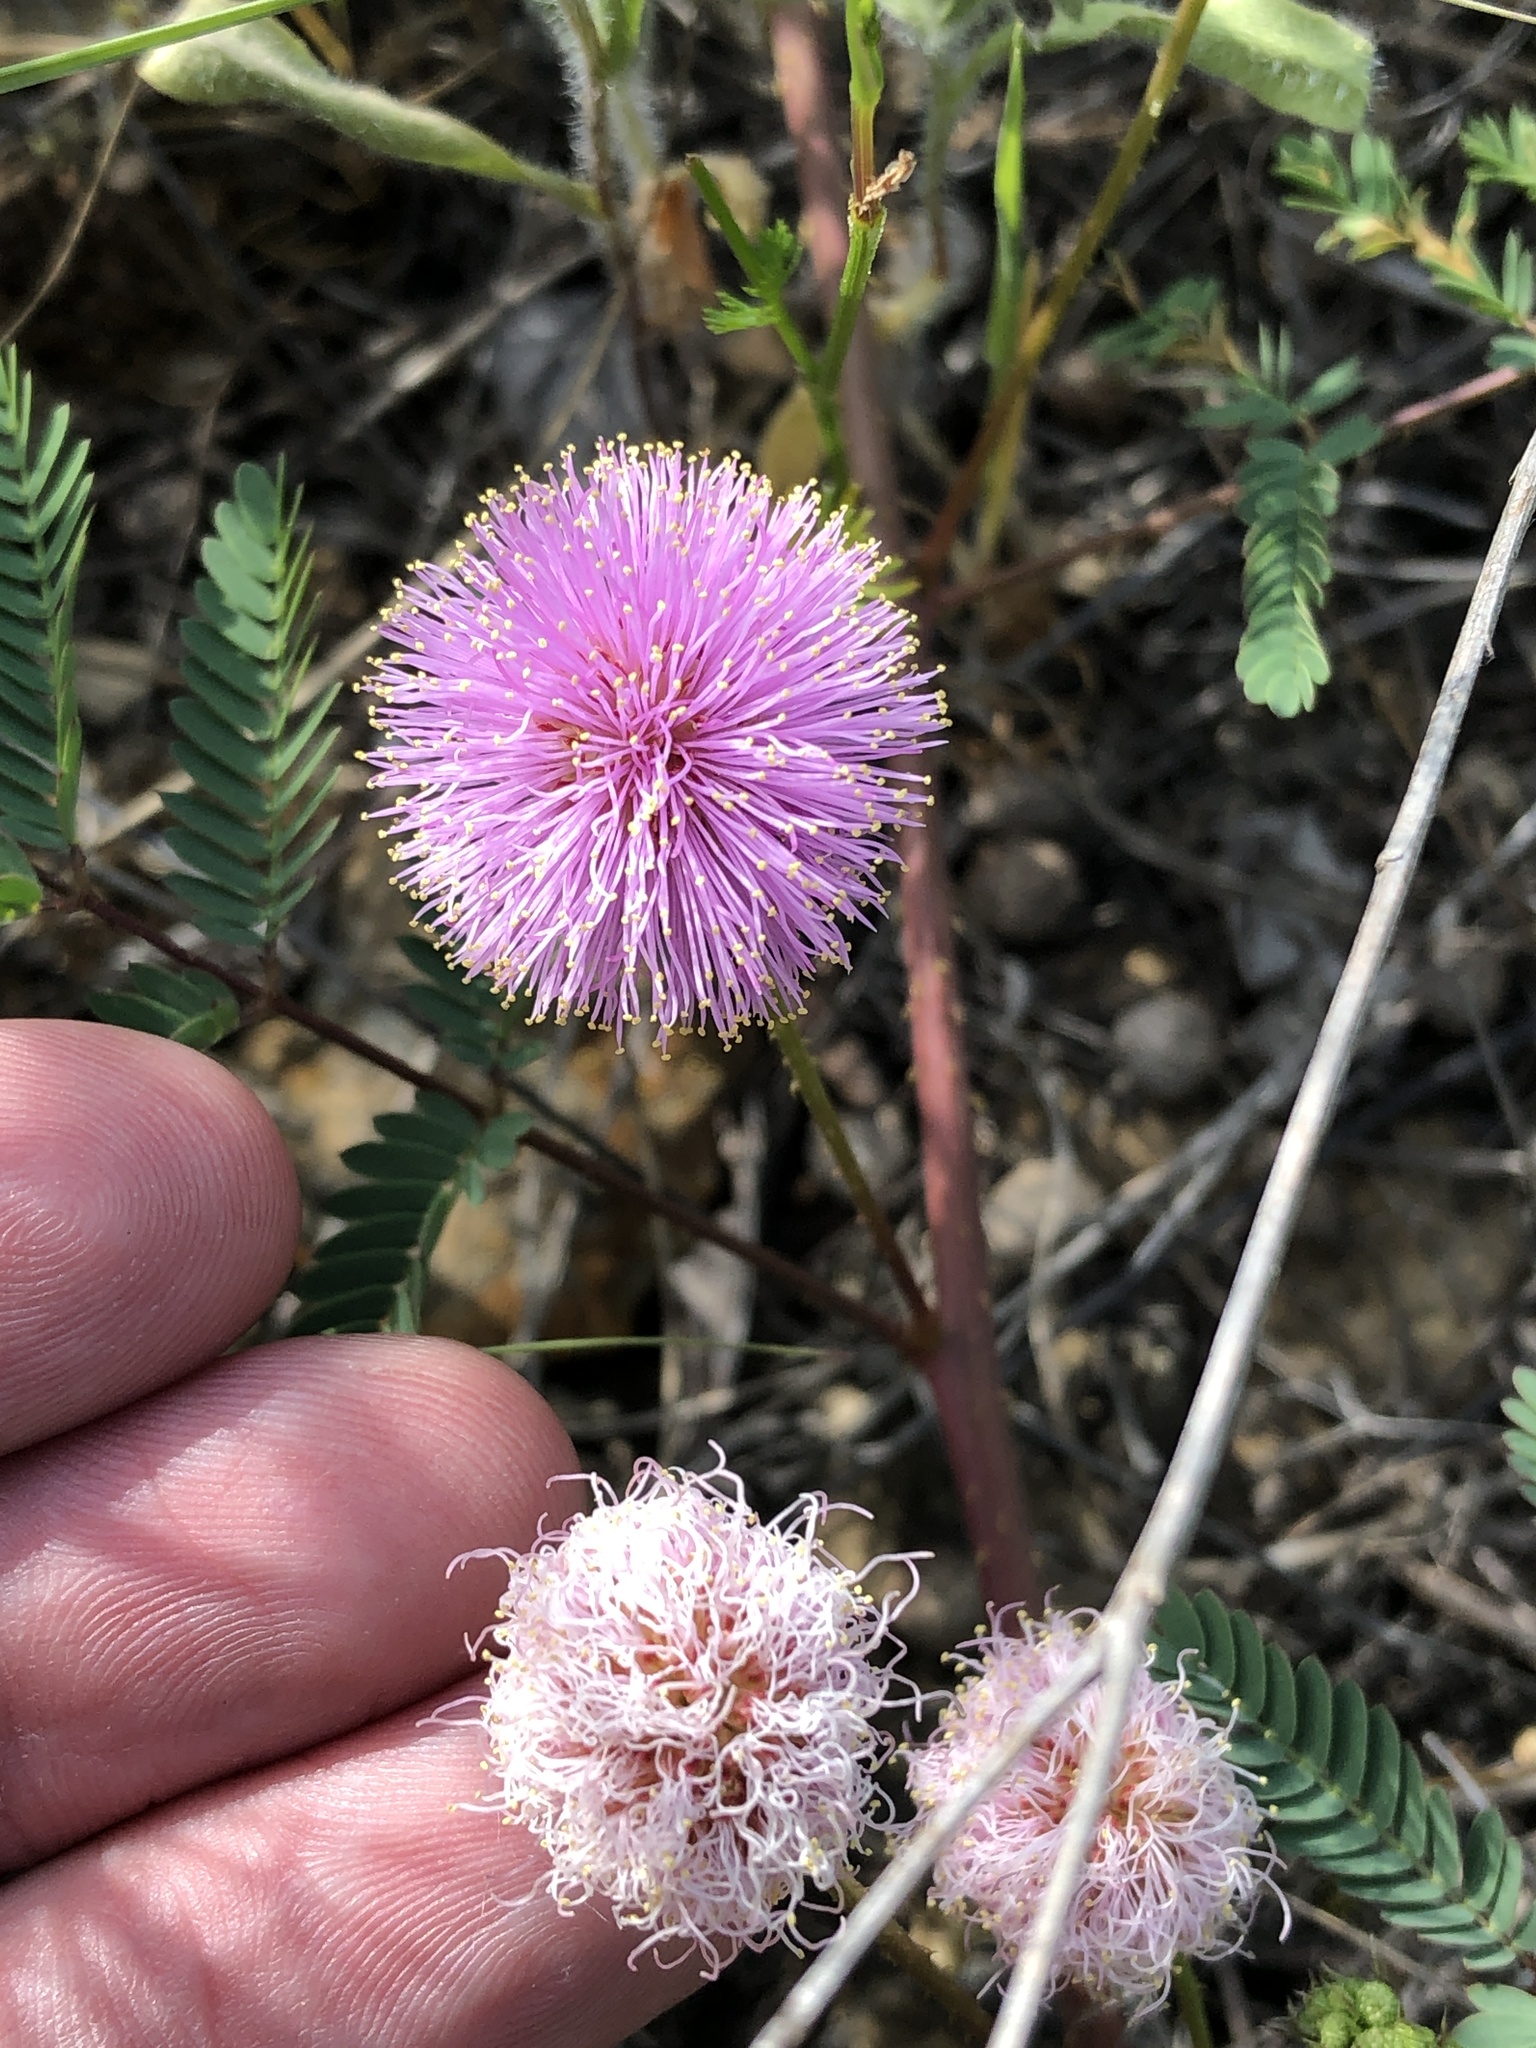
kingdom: Plantae
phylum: Tracheophyta
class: Magnoliopsida
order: Fabales
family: Fabaceae
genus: Mimosa
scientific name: Mimosa quadrivalvis
